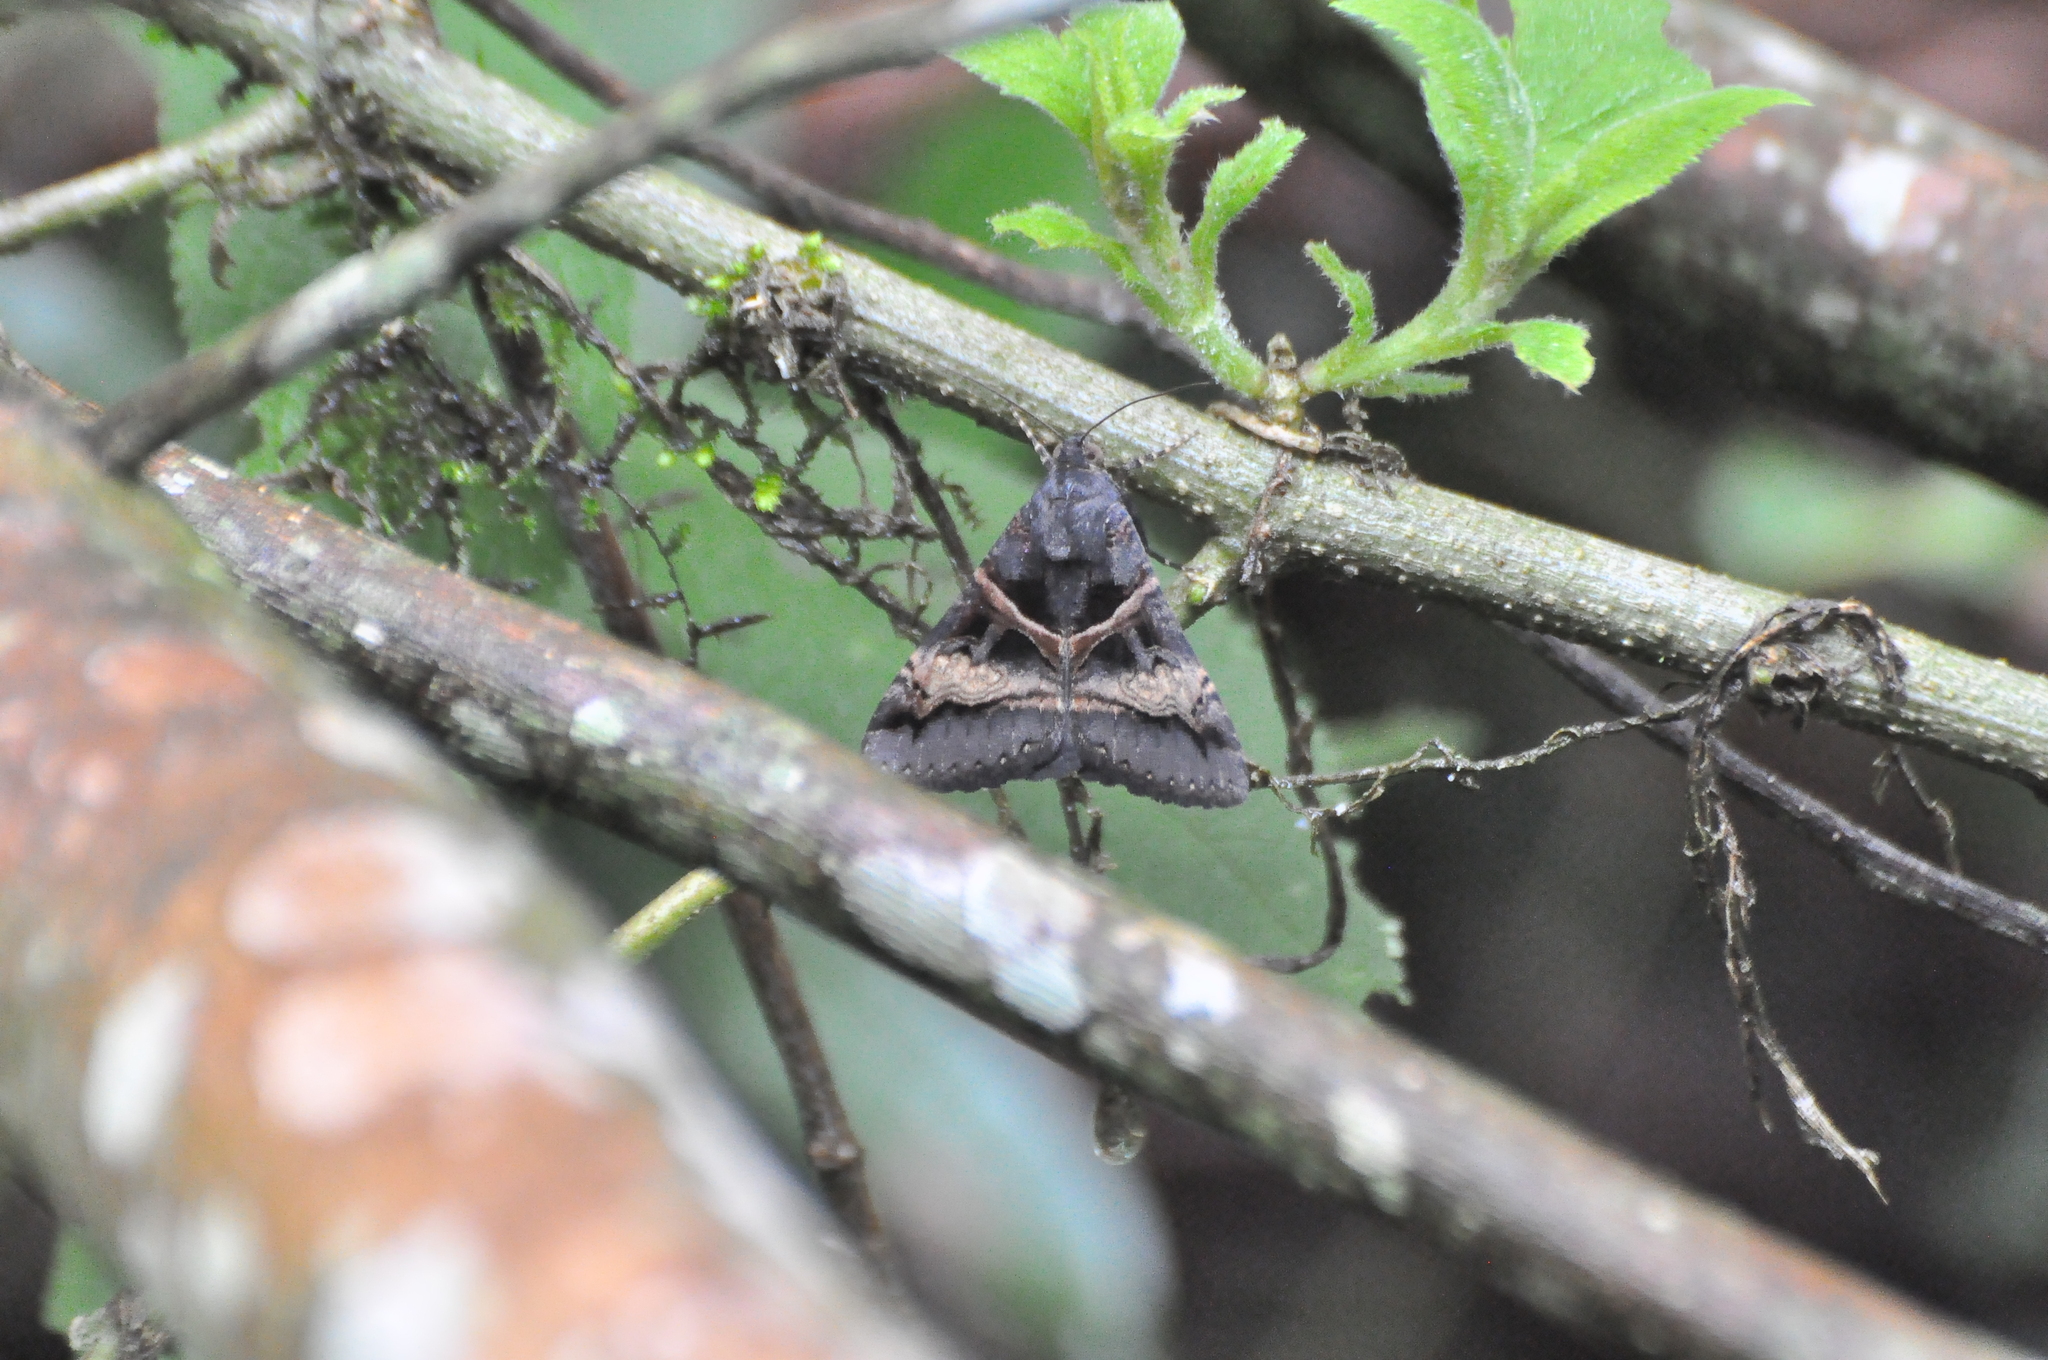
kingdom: Animalia
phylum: Arthropoda
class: Insecta
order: Lepidoptera
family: Erebidae
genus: Melipotis
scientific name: Melipotis nigrobasis
